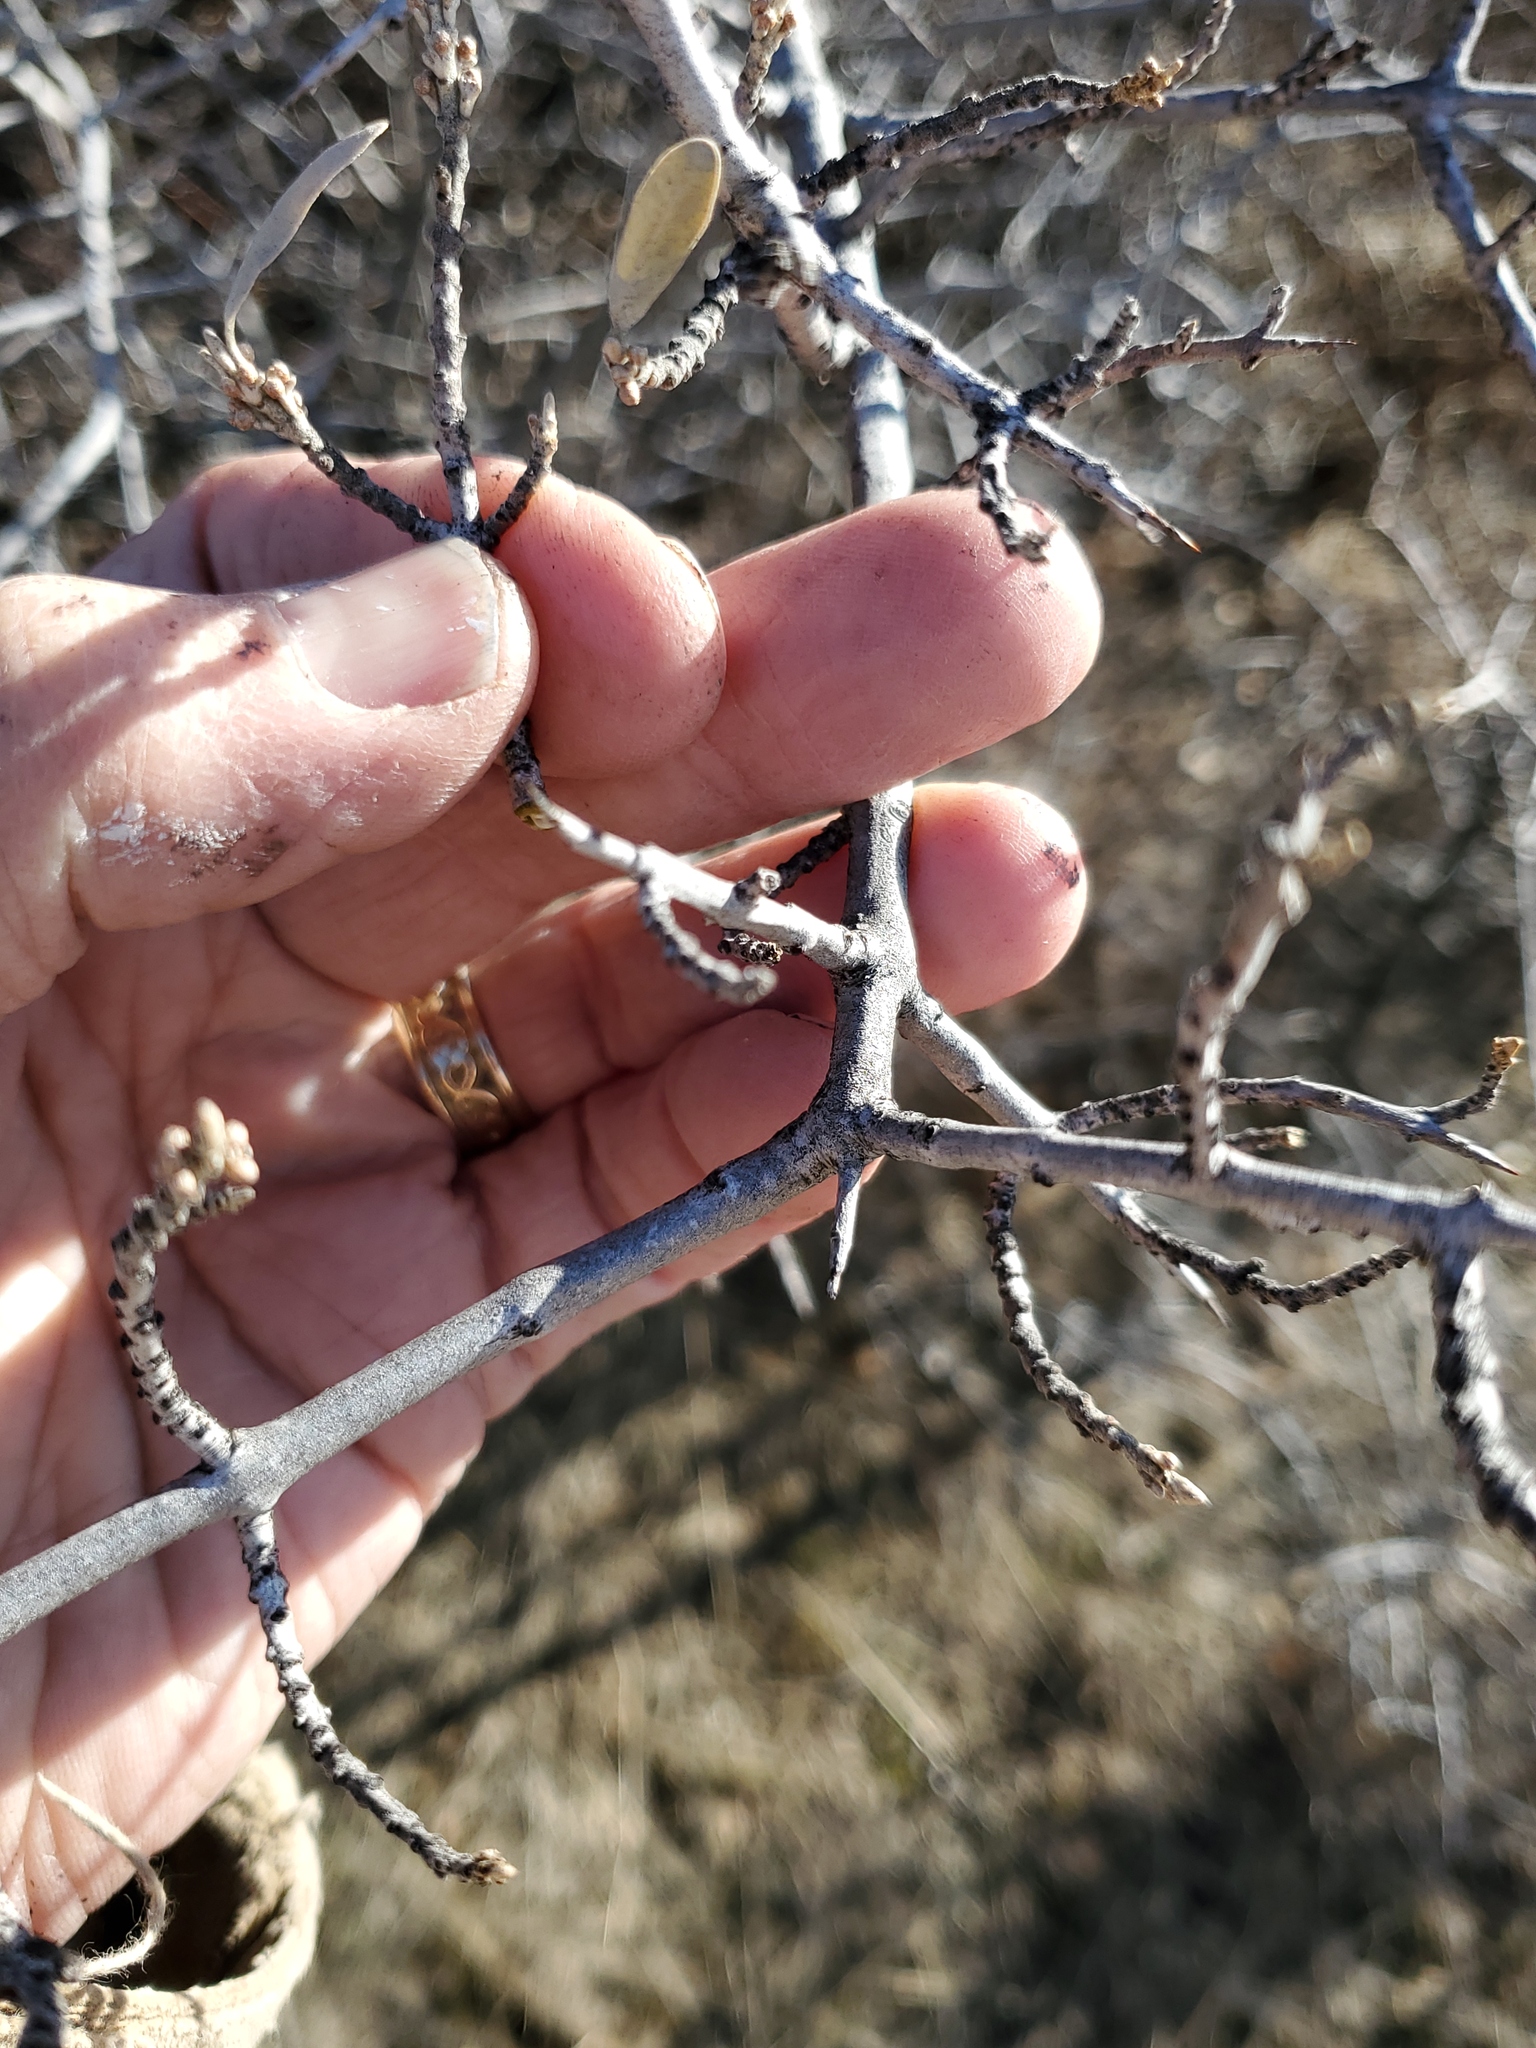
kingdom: Plantae
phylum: Tracheophyta
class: Magnoliopsida
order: Rosales
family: Elaeagnaceae
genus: Shepherdia
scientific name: Shepherdia argentea
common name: Silver buffaloberry
